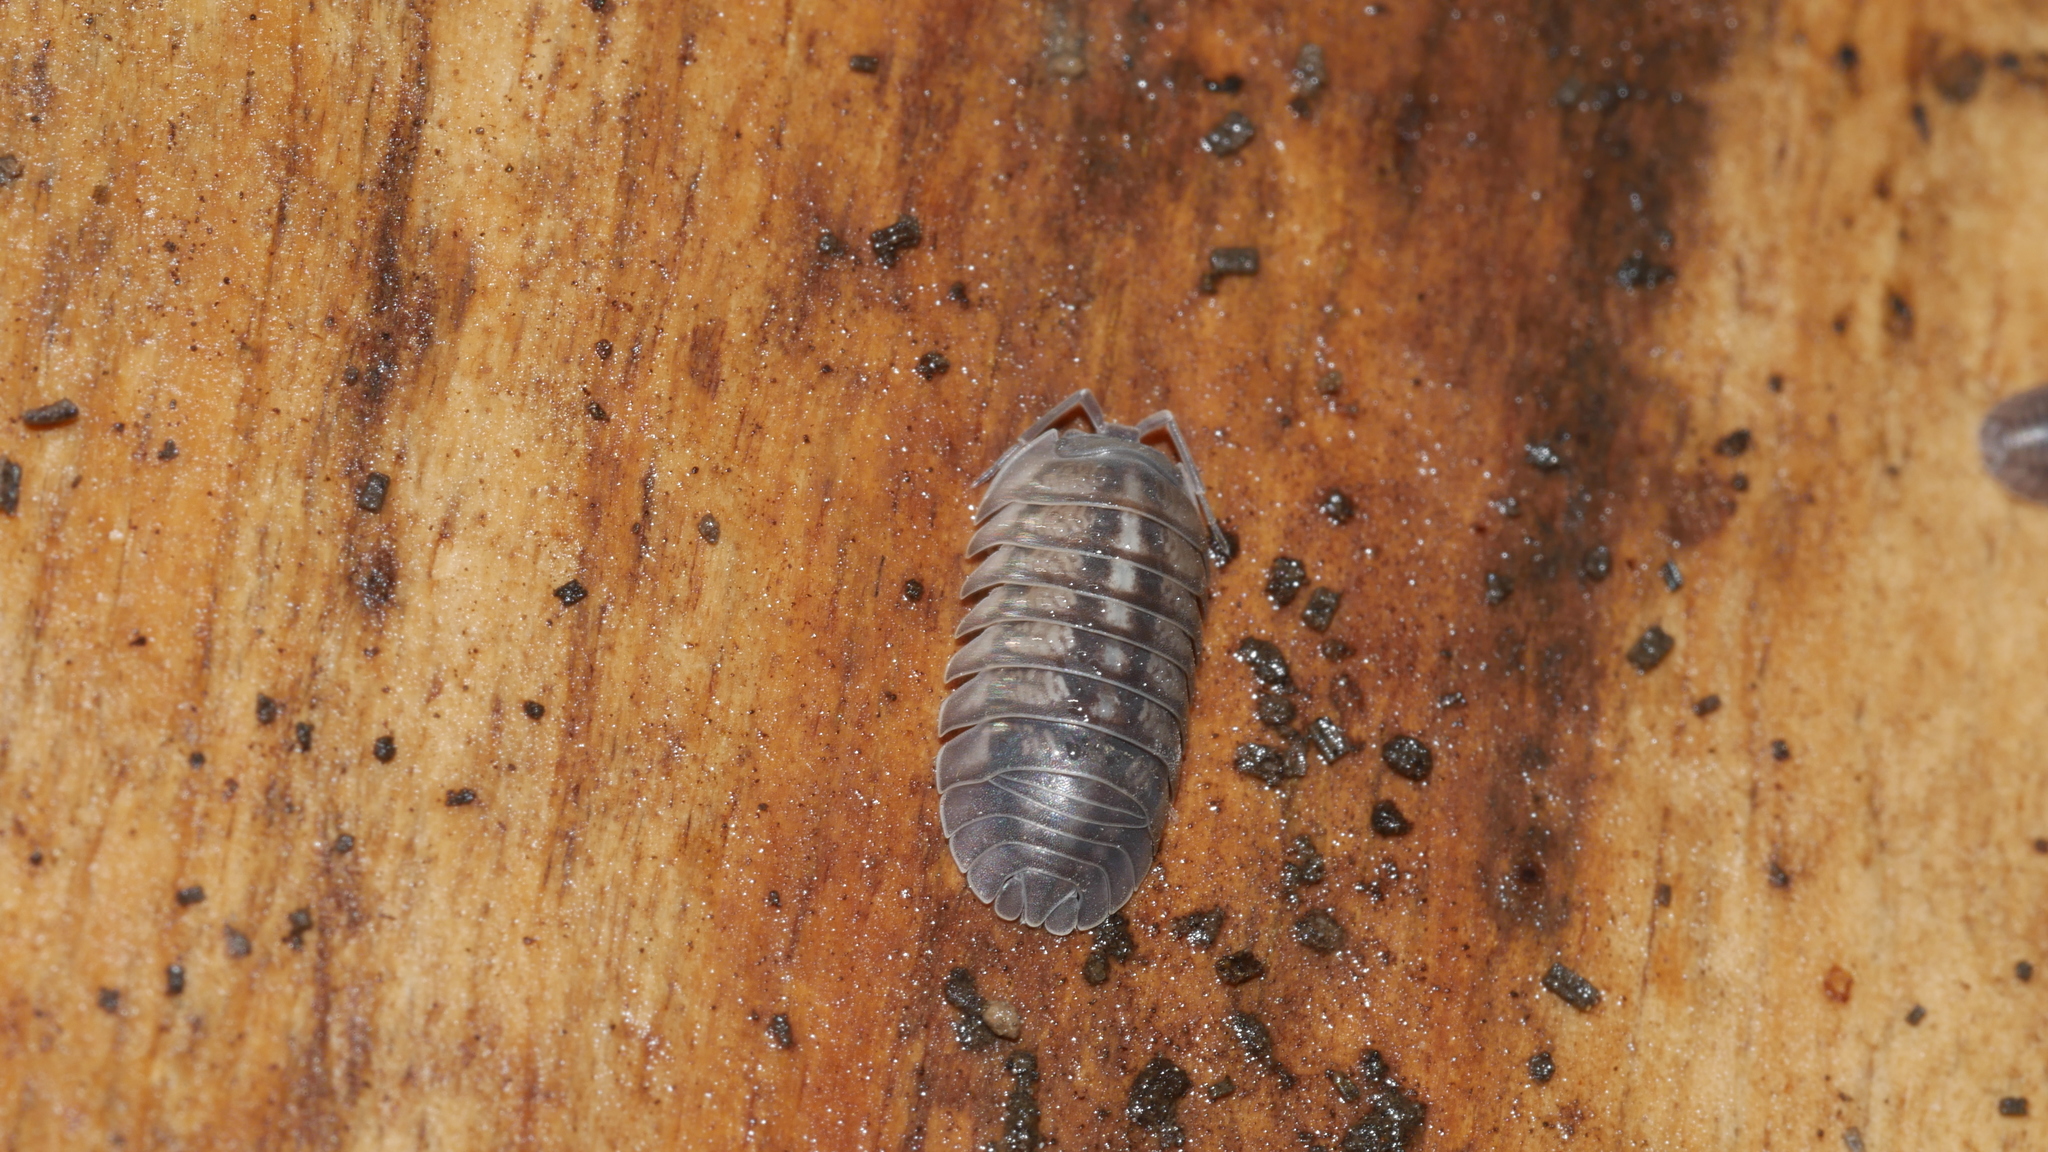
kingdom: Animalia
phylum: Arthropoda
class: Malacostraca
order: Isopoda
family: Armadillidiidae
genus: Armadillidium
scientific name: Armadillidium nasatum
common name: Isopod
